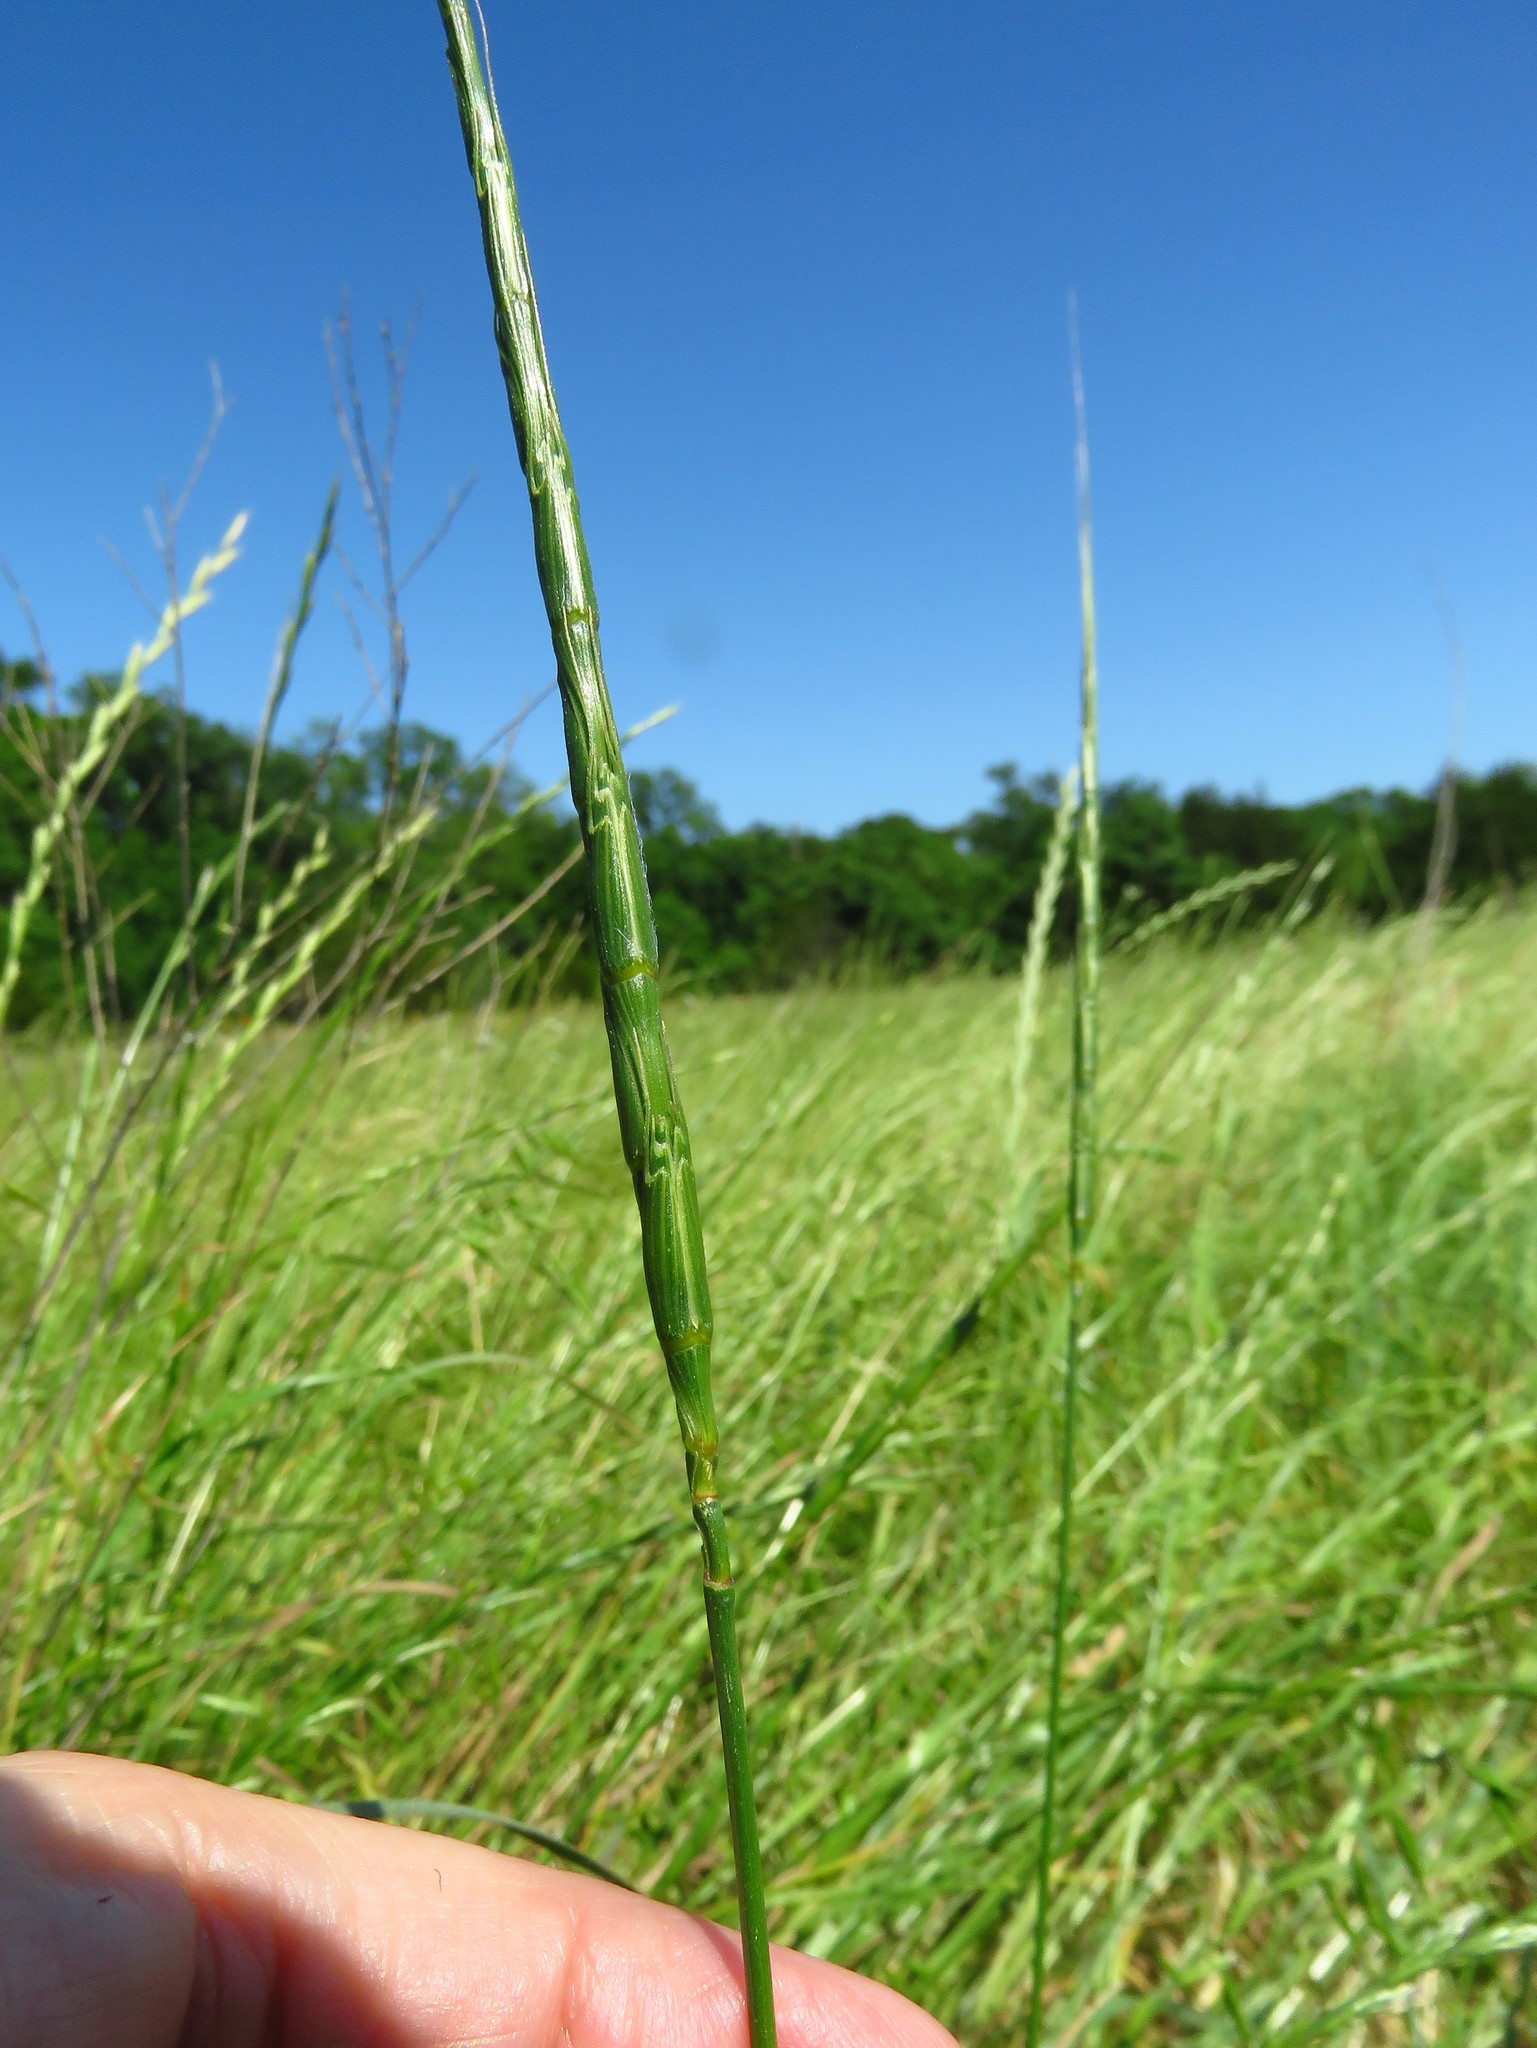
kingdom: Plantae
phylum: Tracheophyta
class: Liliopsida
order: Poales
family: Poaceae
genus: Aegilops
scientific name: Aegilops cylindrica
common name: Jointed goatgrass
